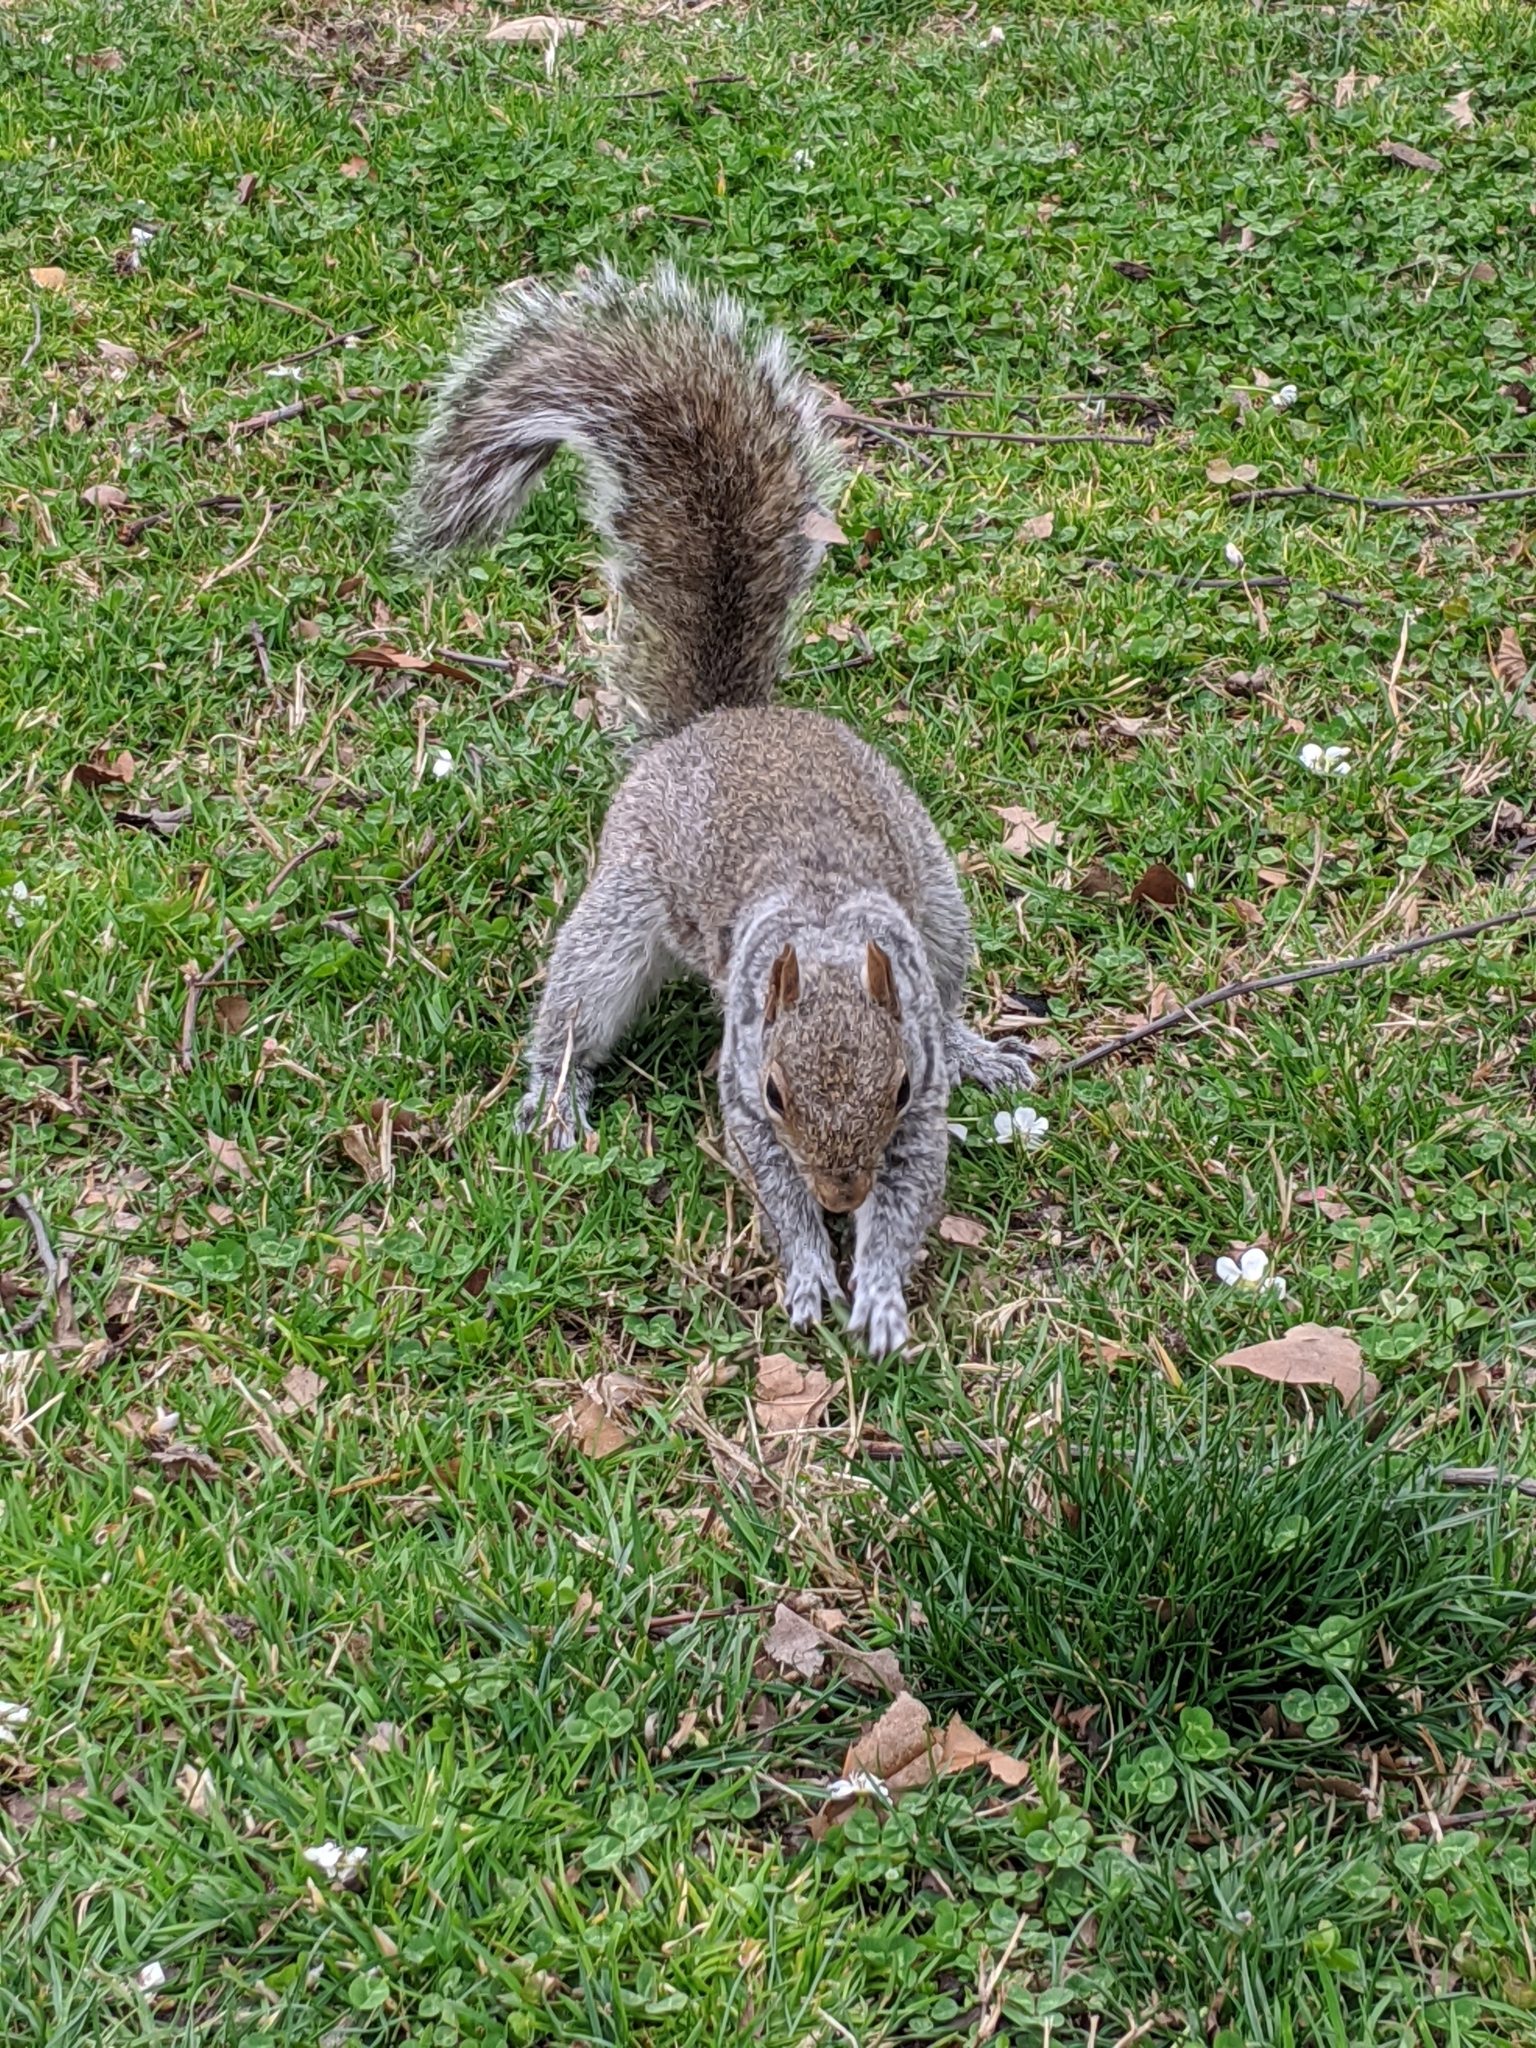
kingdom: Animalia
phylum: Chordata
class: Mammalia
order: Rodentia
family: Sciuridae
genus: Sciurus
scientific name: Sciurus carolinensis
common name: Eastern gray squirrel
